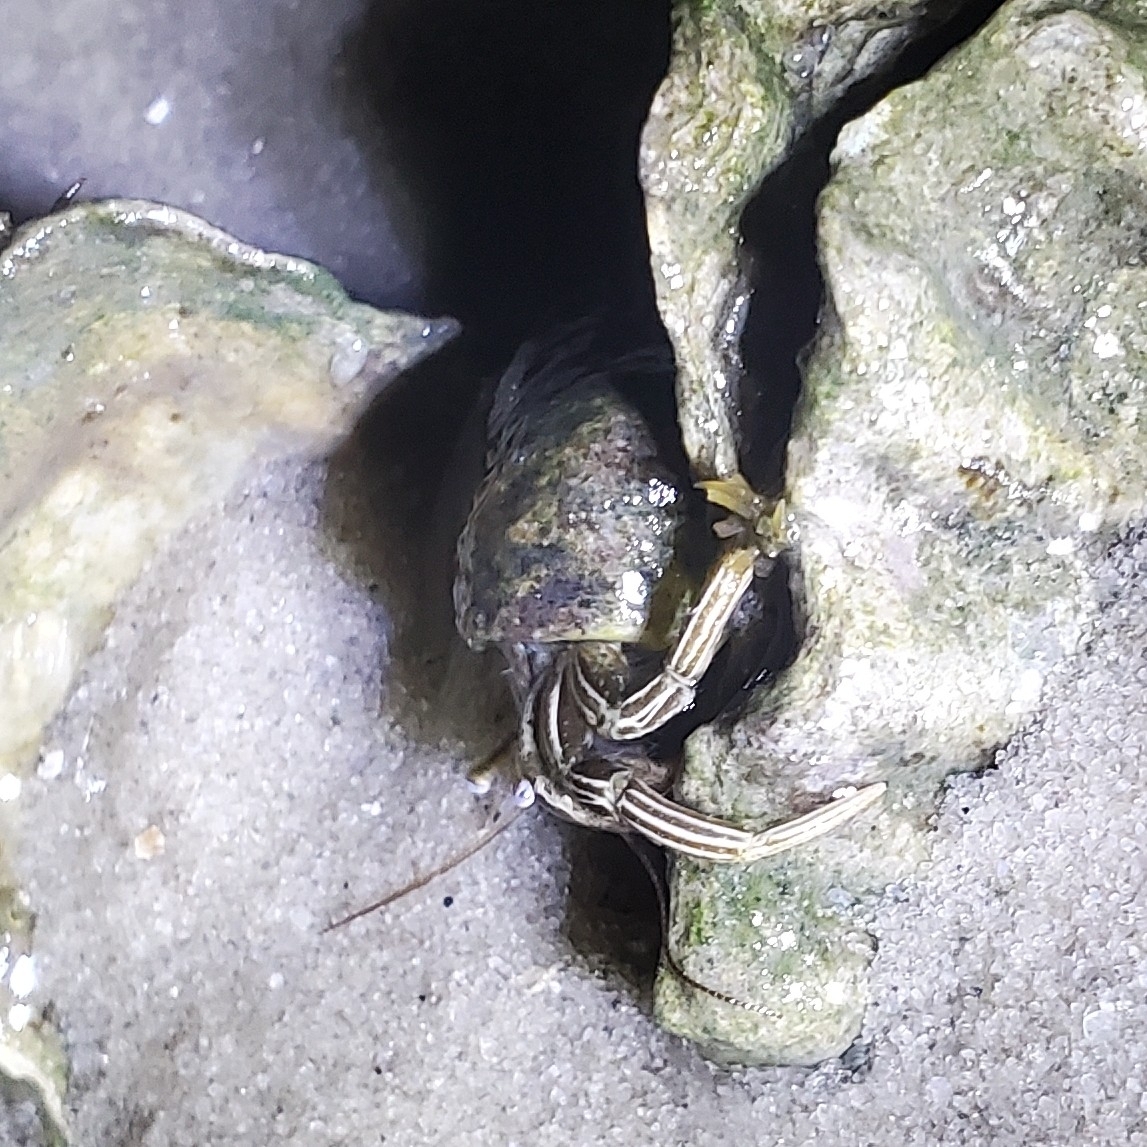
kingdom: Animalia
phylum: Arthropoda
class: Malacostraca
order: Decapoda
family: Diogenidae
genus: Clibanarius
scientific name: Clibanarius vittatus
